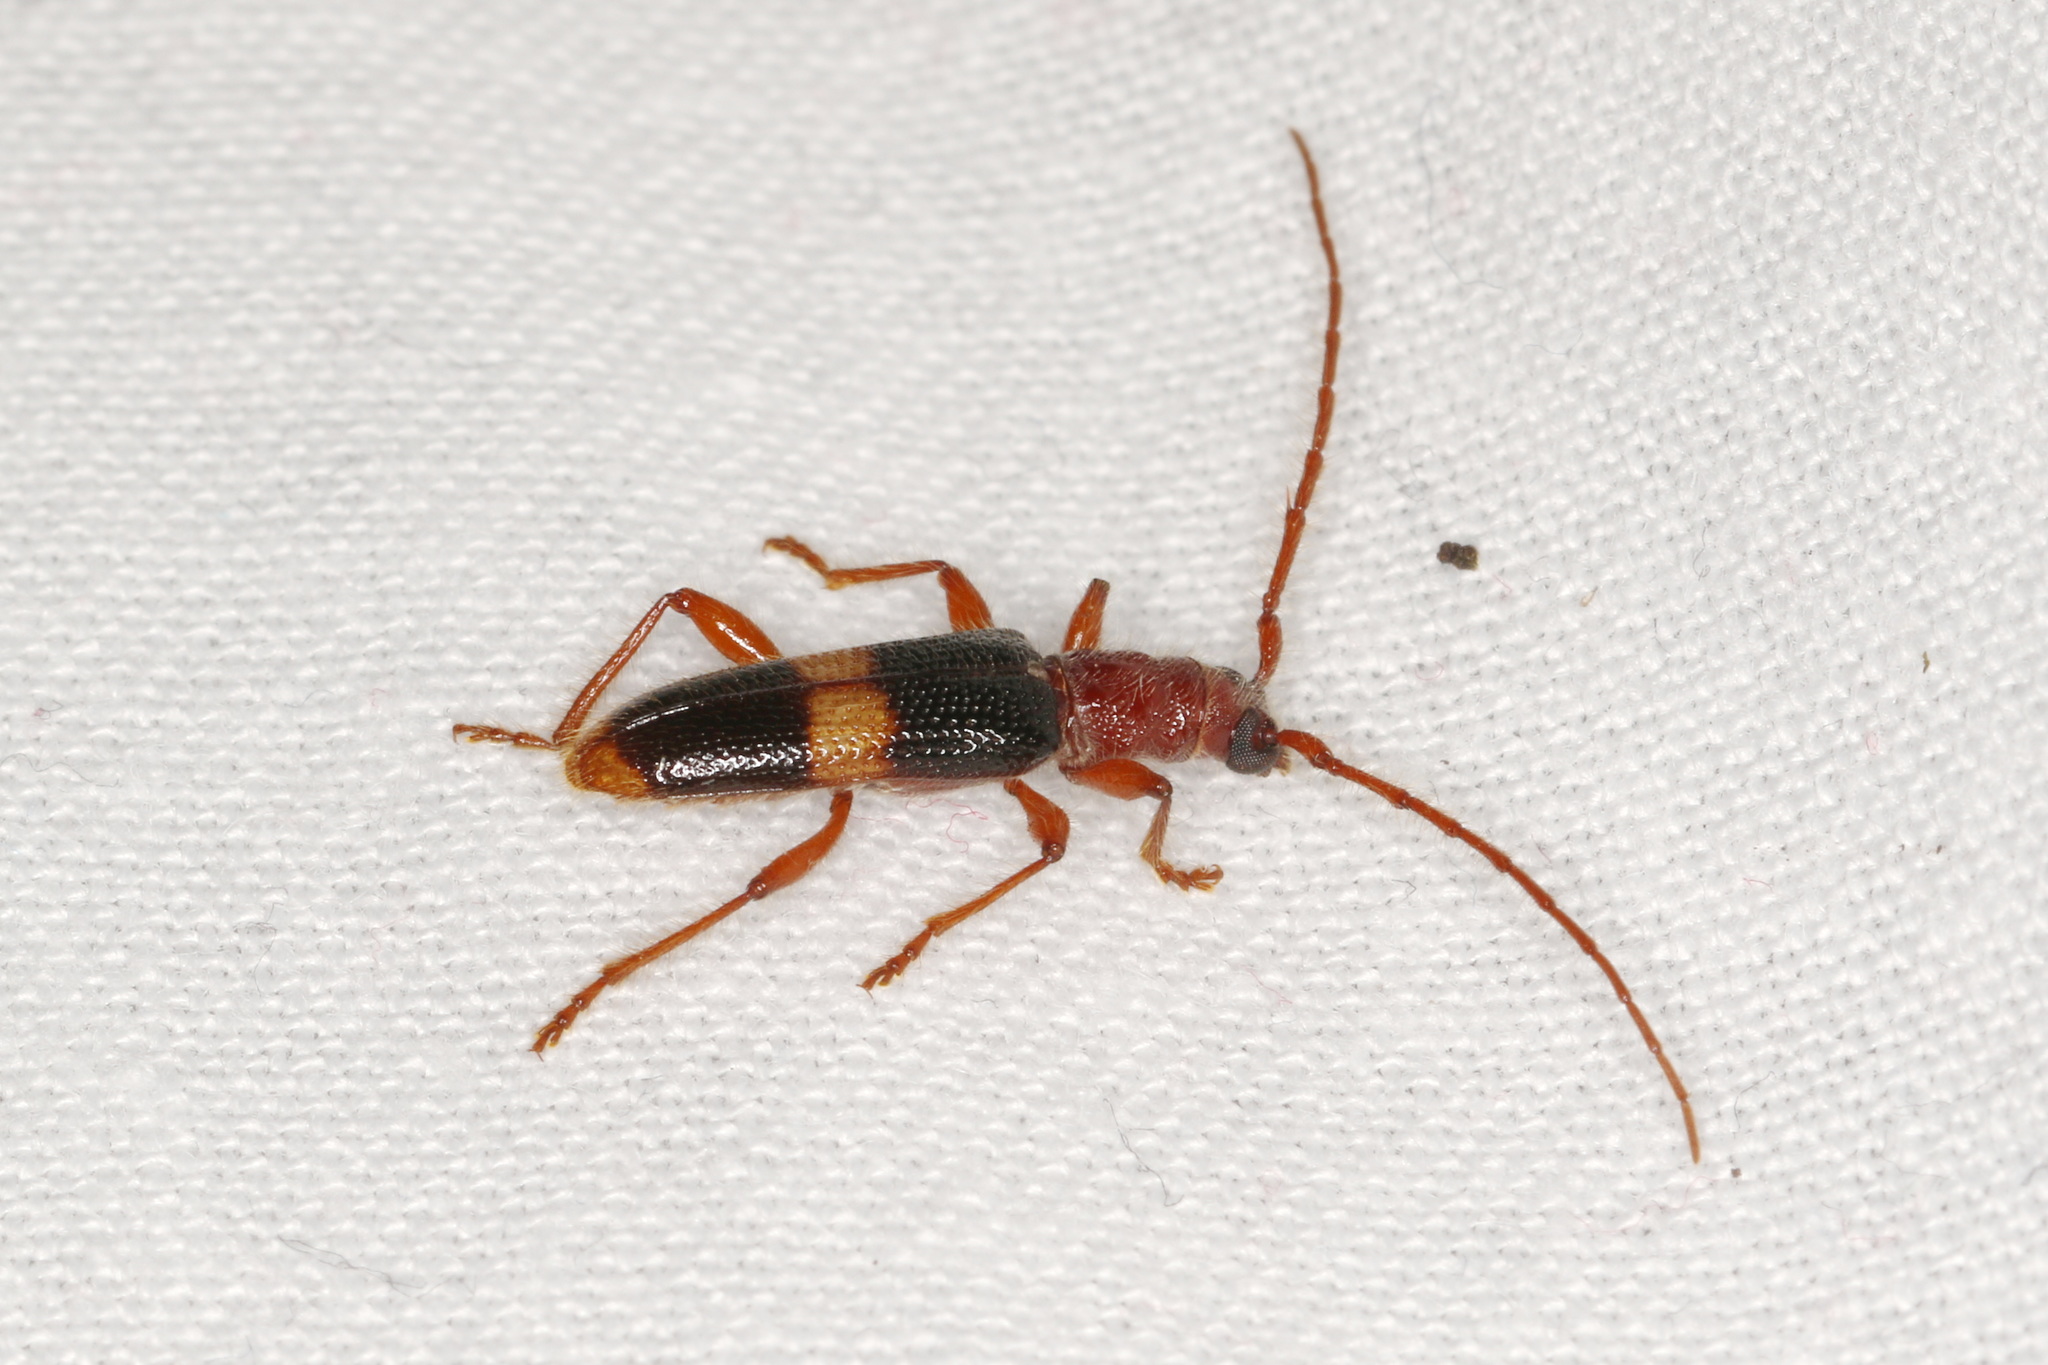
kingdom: Animalia
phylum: Arthropoda
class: Insecta
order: Coleoptera
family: Cerambycidae
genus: Atesta
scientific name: Atesta bifasciata
